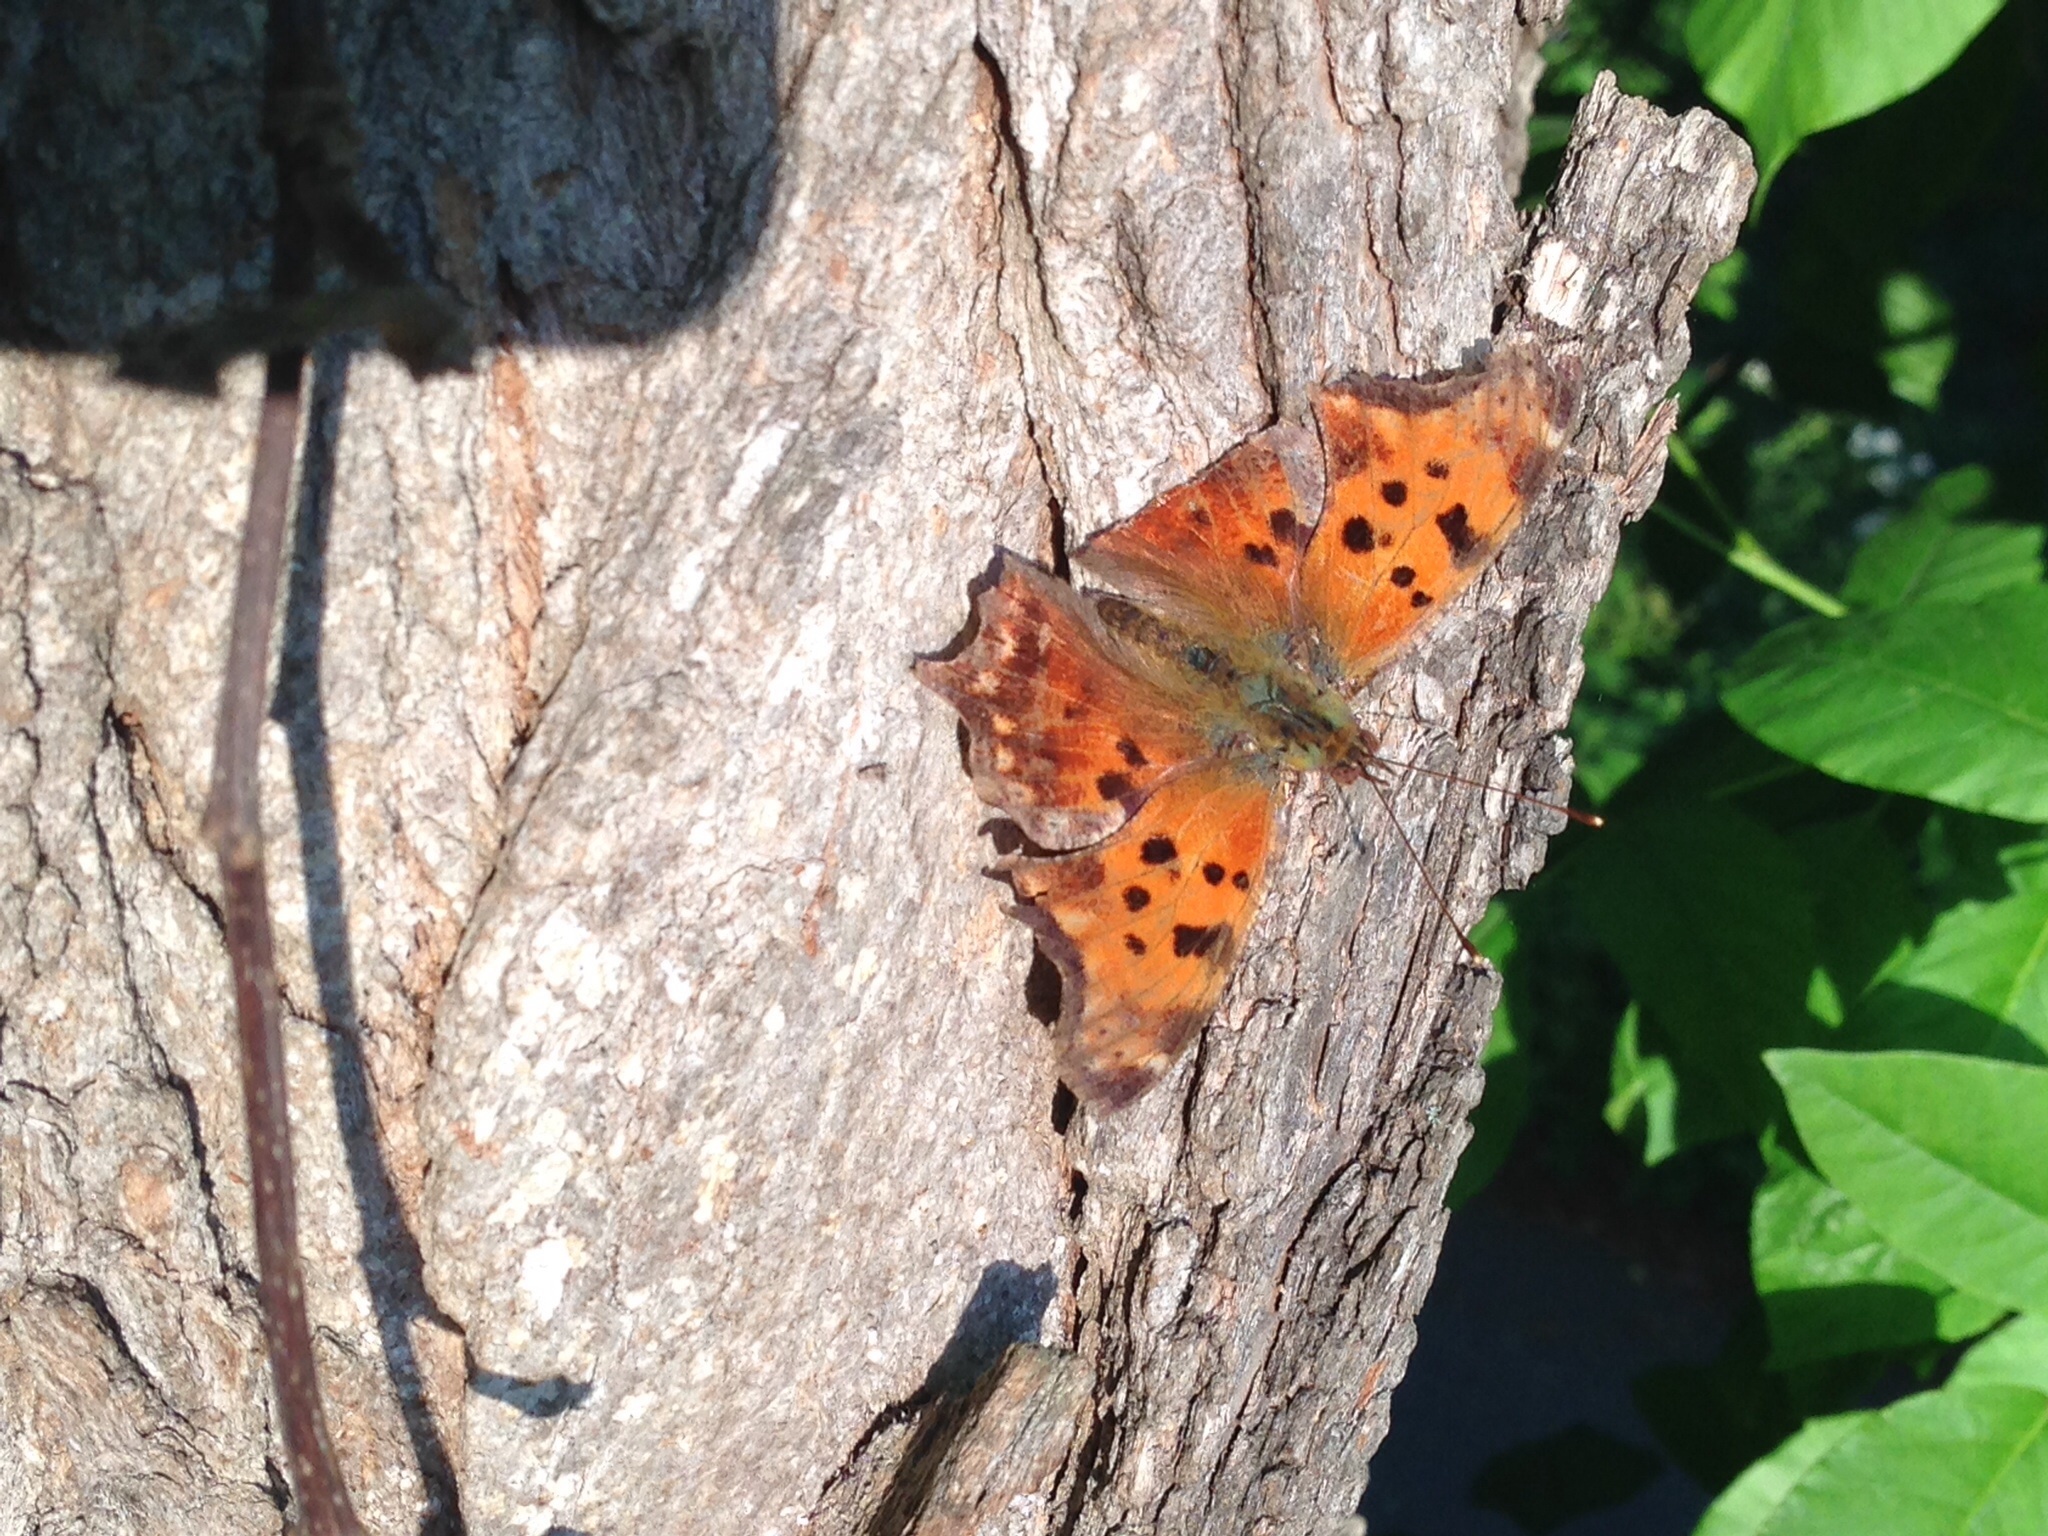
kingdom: Animalia
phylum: Arthropoda
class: Insecta
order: Lepidoptera
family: Nymphalidae
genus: Polygonia
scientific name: Polygonia comma
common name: Eastern comma
